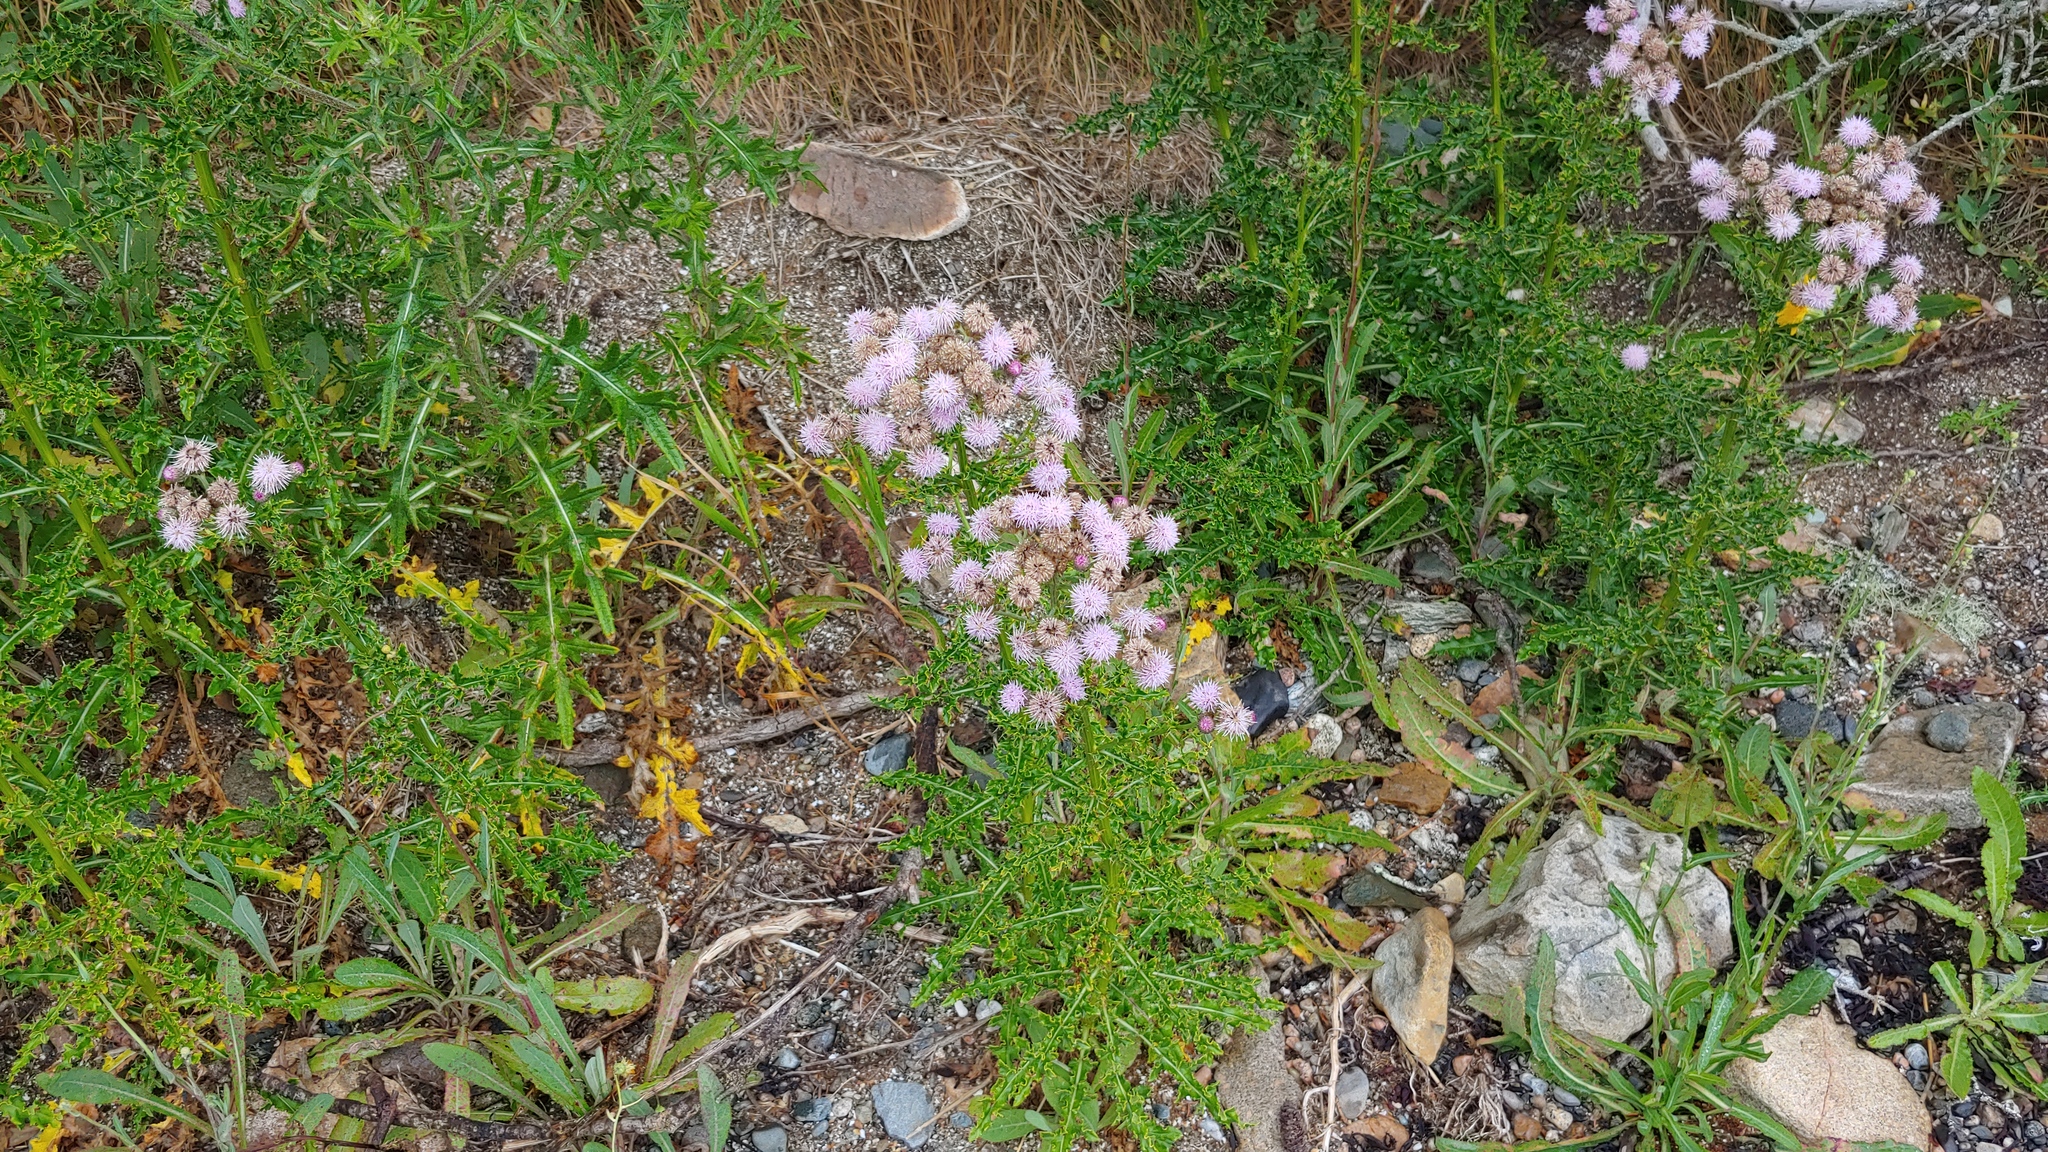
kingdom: Plantae
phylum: Tracheophyta
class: Magnoliopsida
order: Asterales
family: Asteraceae
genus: Cirsium
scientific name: Cirsium arvense
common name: Creeping thistle
